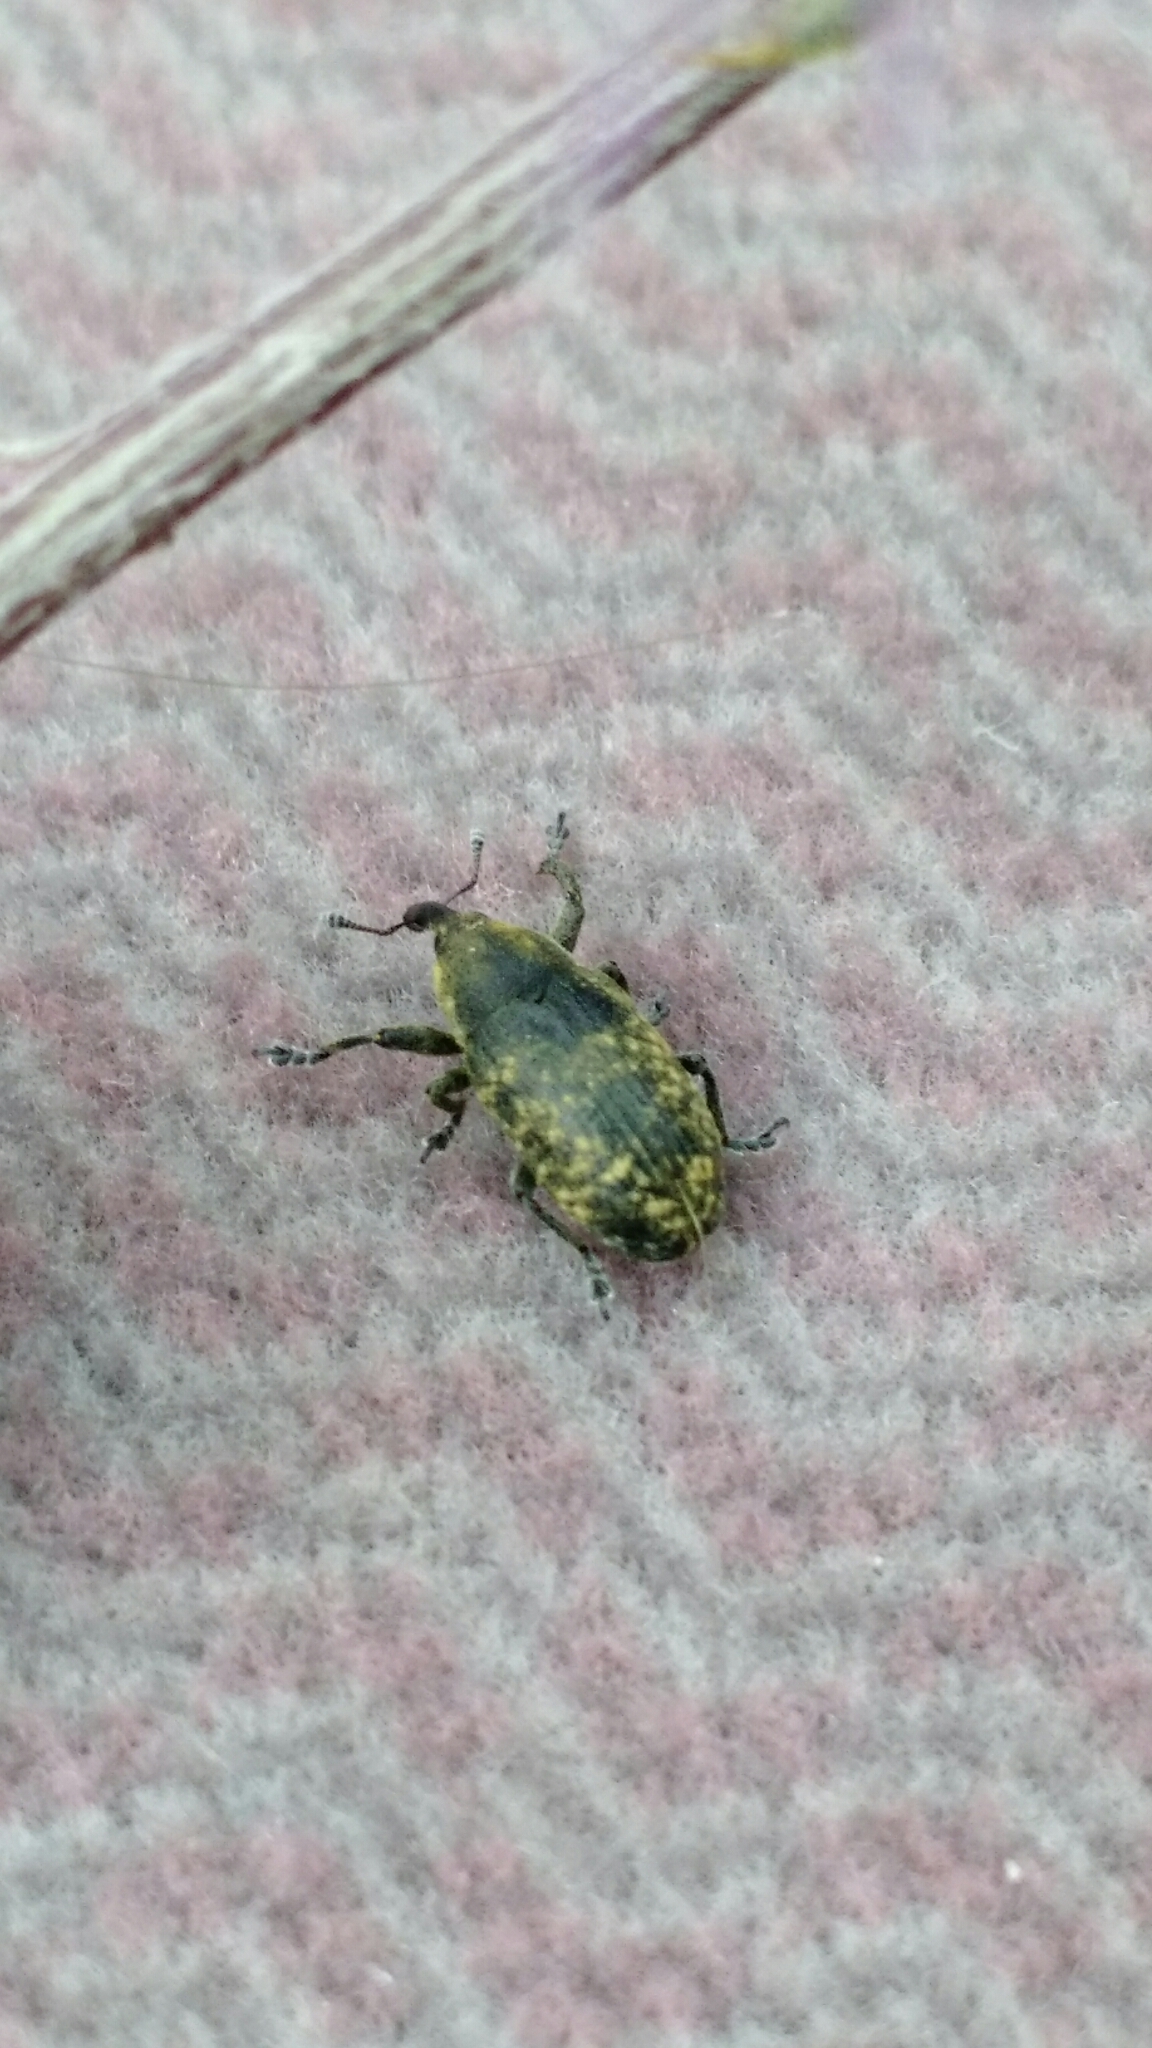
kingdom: Animalia
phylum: Arthropoda
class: Insecta
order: Coleoptera
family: Curculionidae
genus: Larinus
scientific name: Larinus carlinae
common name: Weevil
